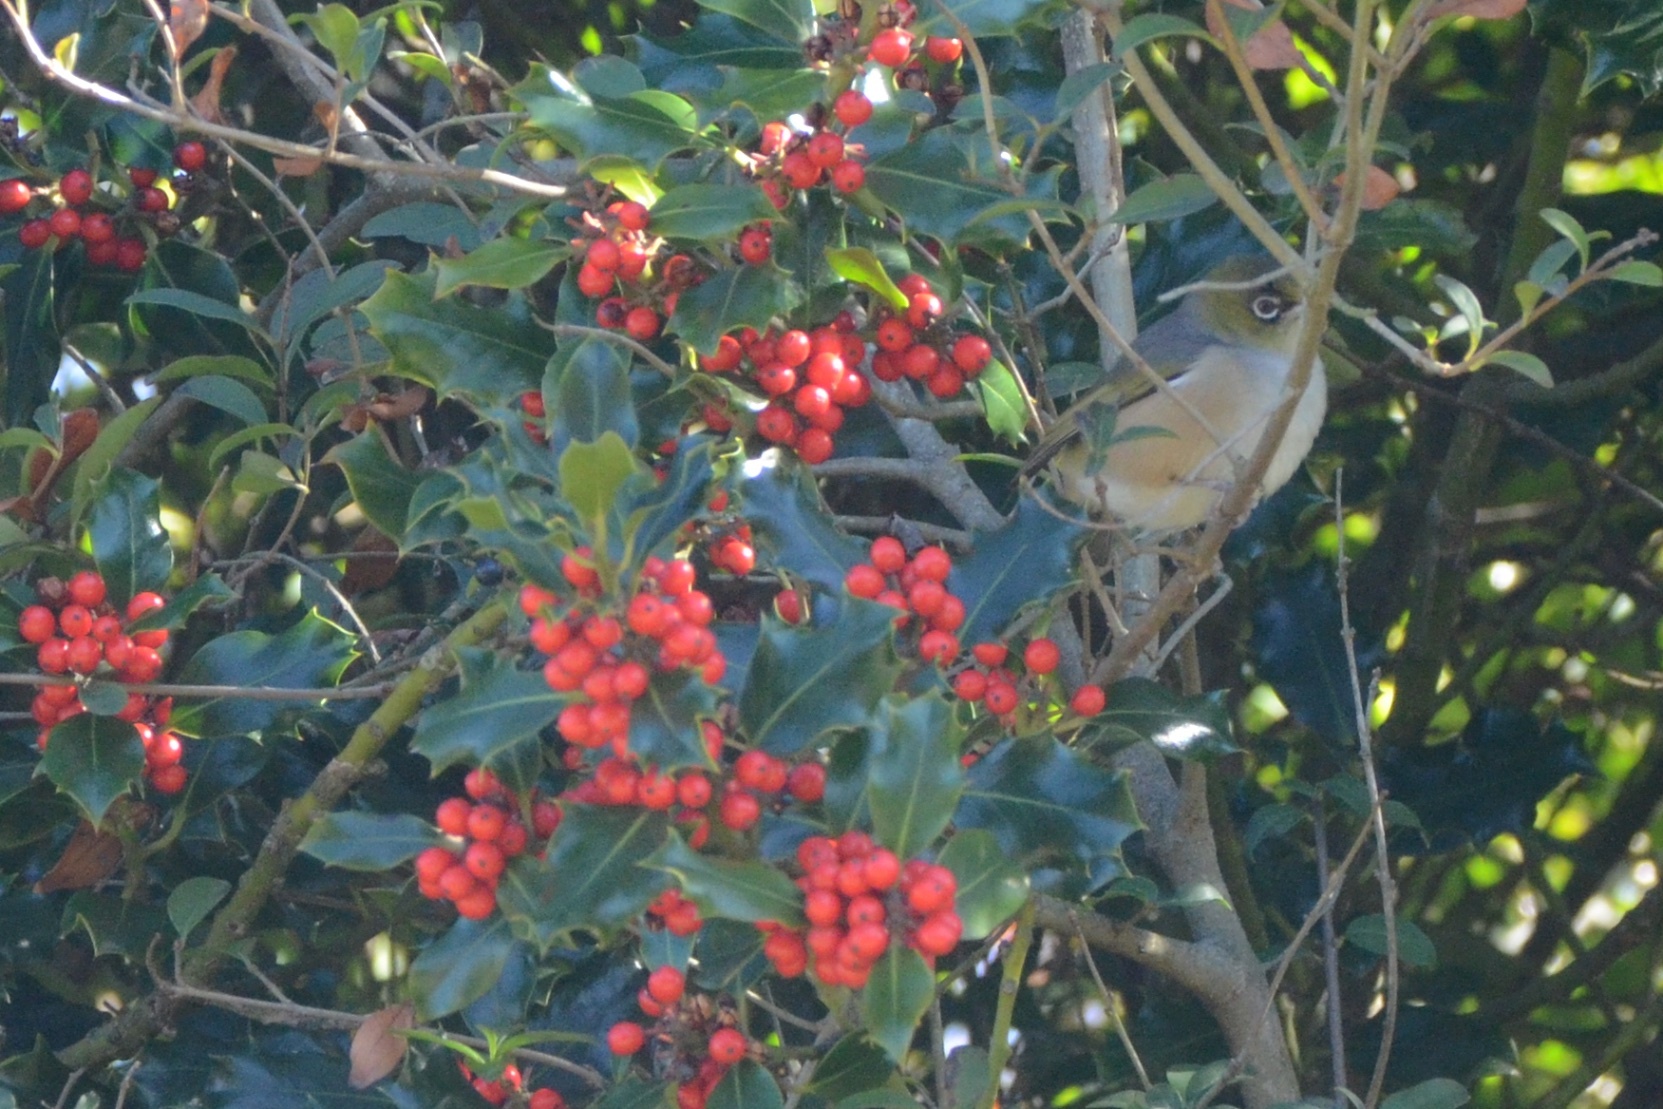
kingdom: Animalia
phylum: Chordata
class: Aves
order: Passeriformes
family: Zosteropidae
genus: Zosterops
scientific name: Zosterops lateralis
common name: Silvereye
